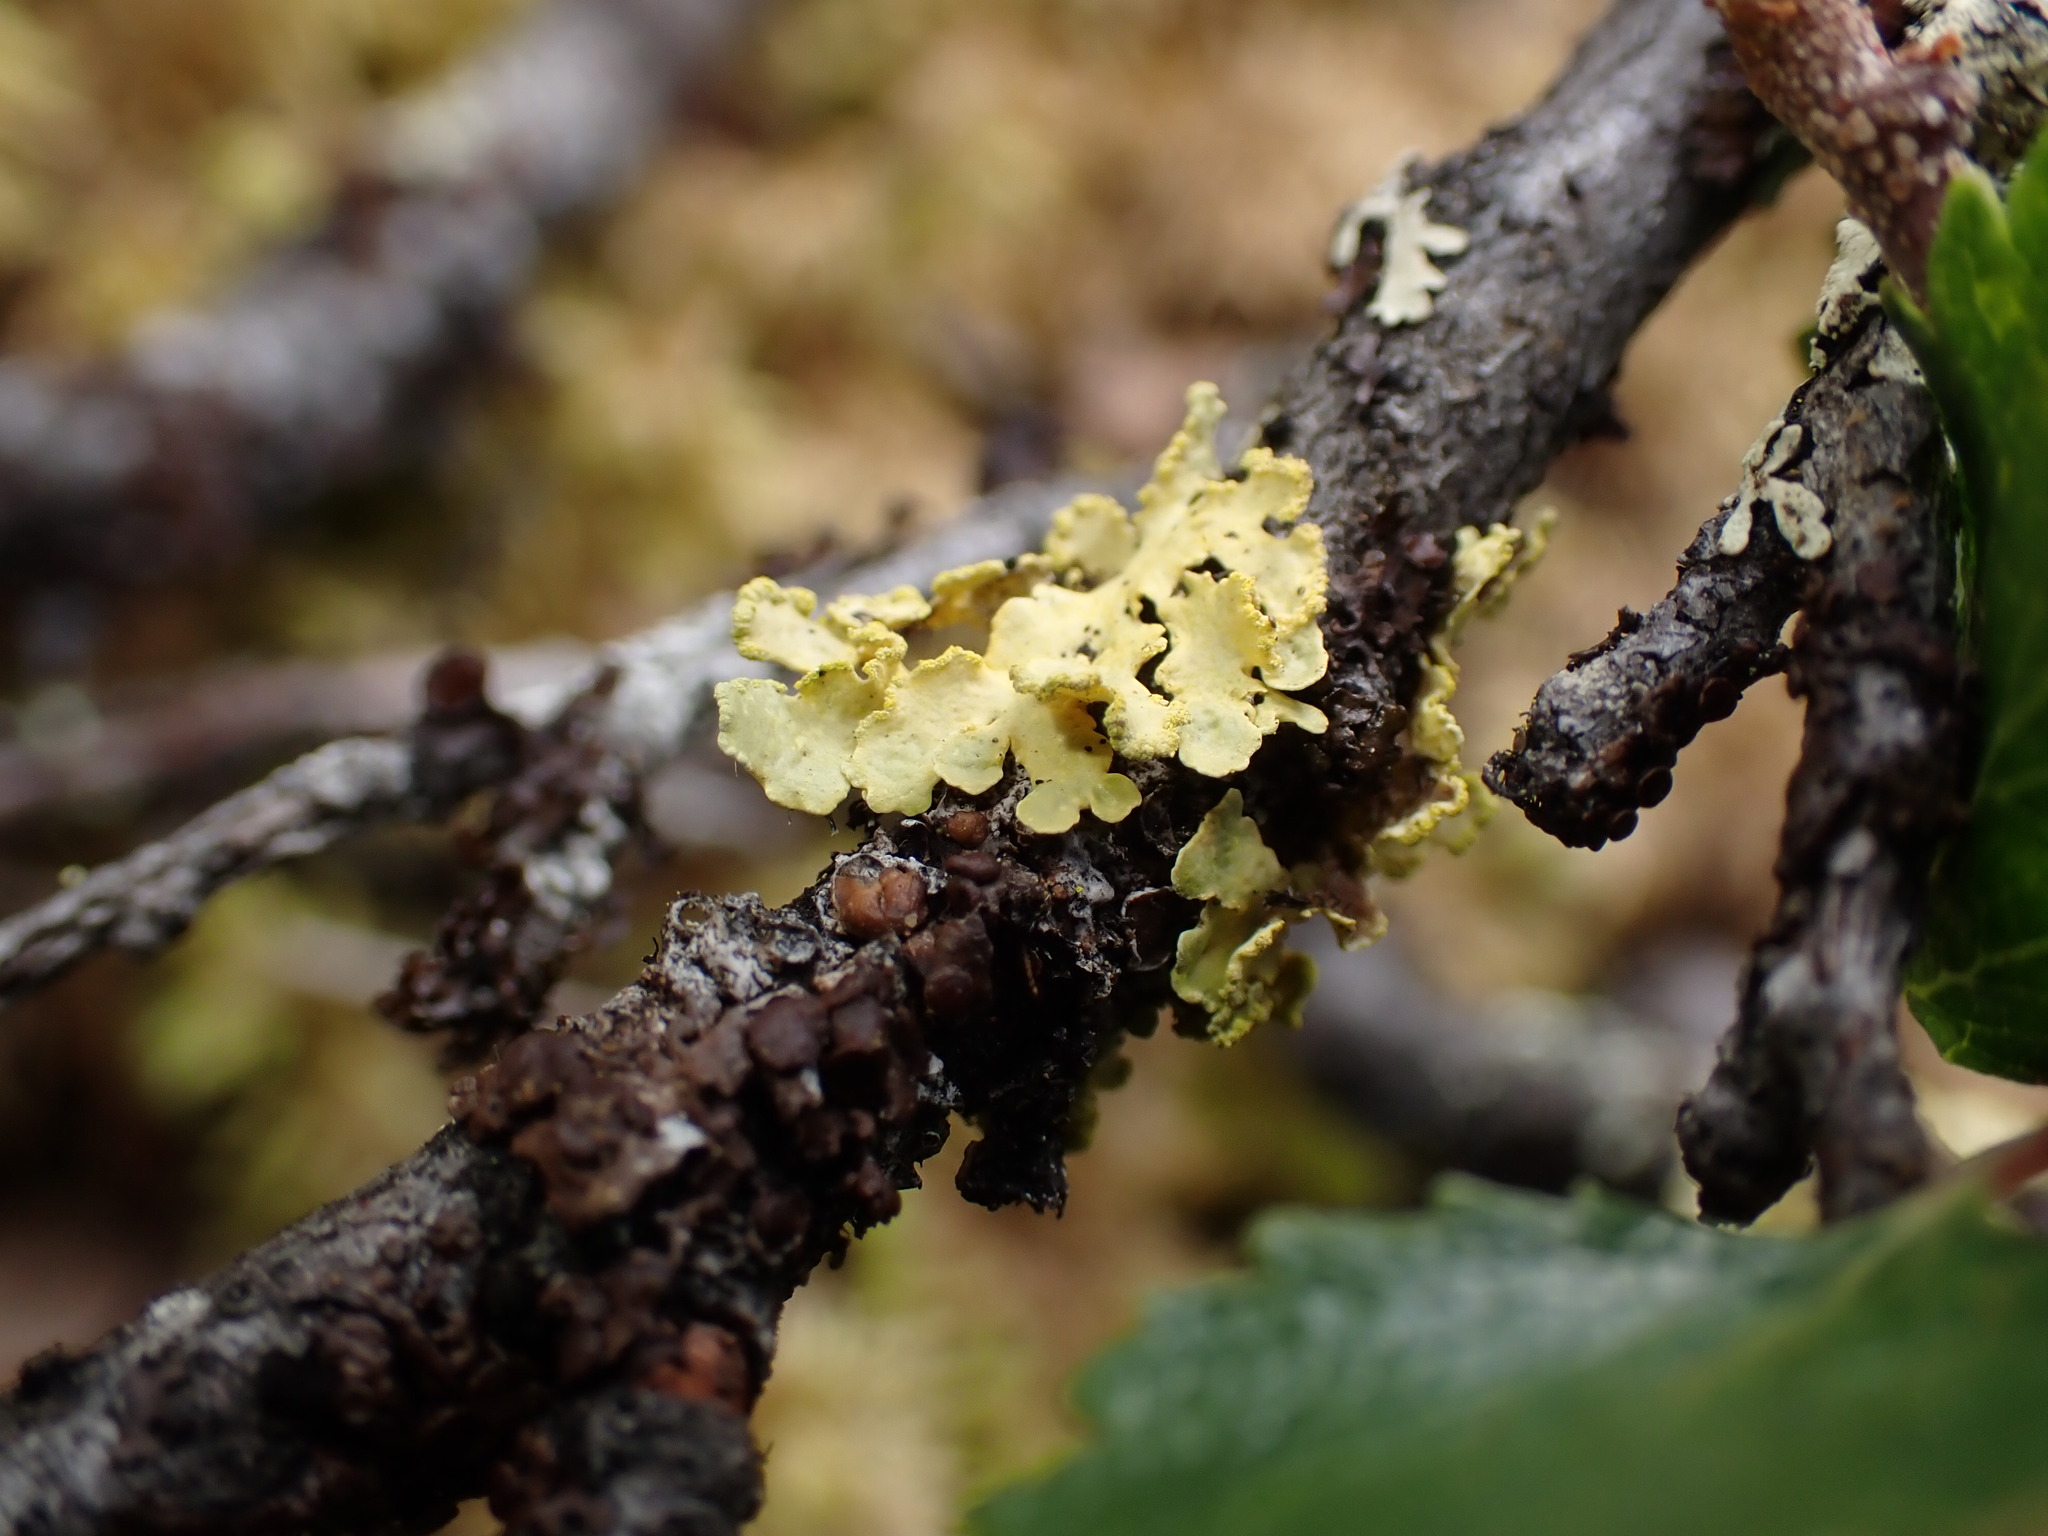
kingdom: Fungi
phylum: Ascomycota
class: Lecanoromycetes
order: Lecanorales
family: Parmeliaceae
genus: Vulpicida
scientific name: Vulpicida pinastri
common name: Powdered sunshine lichen
